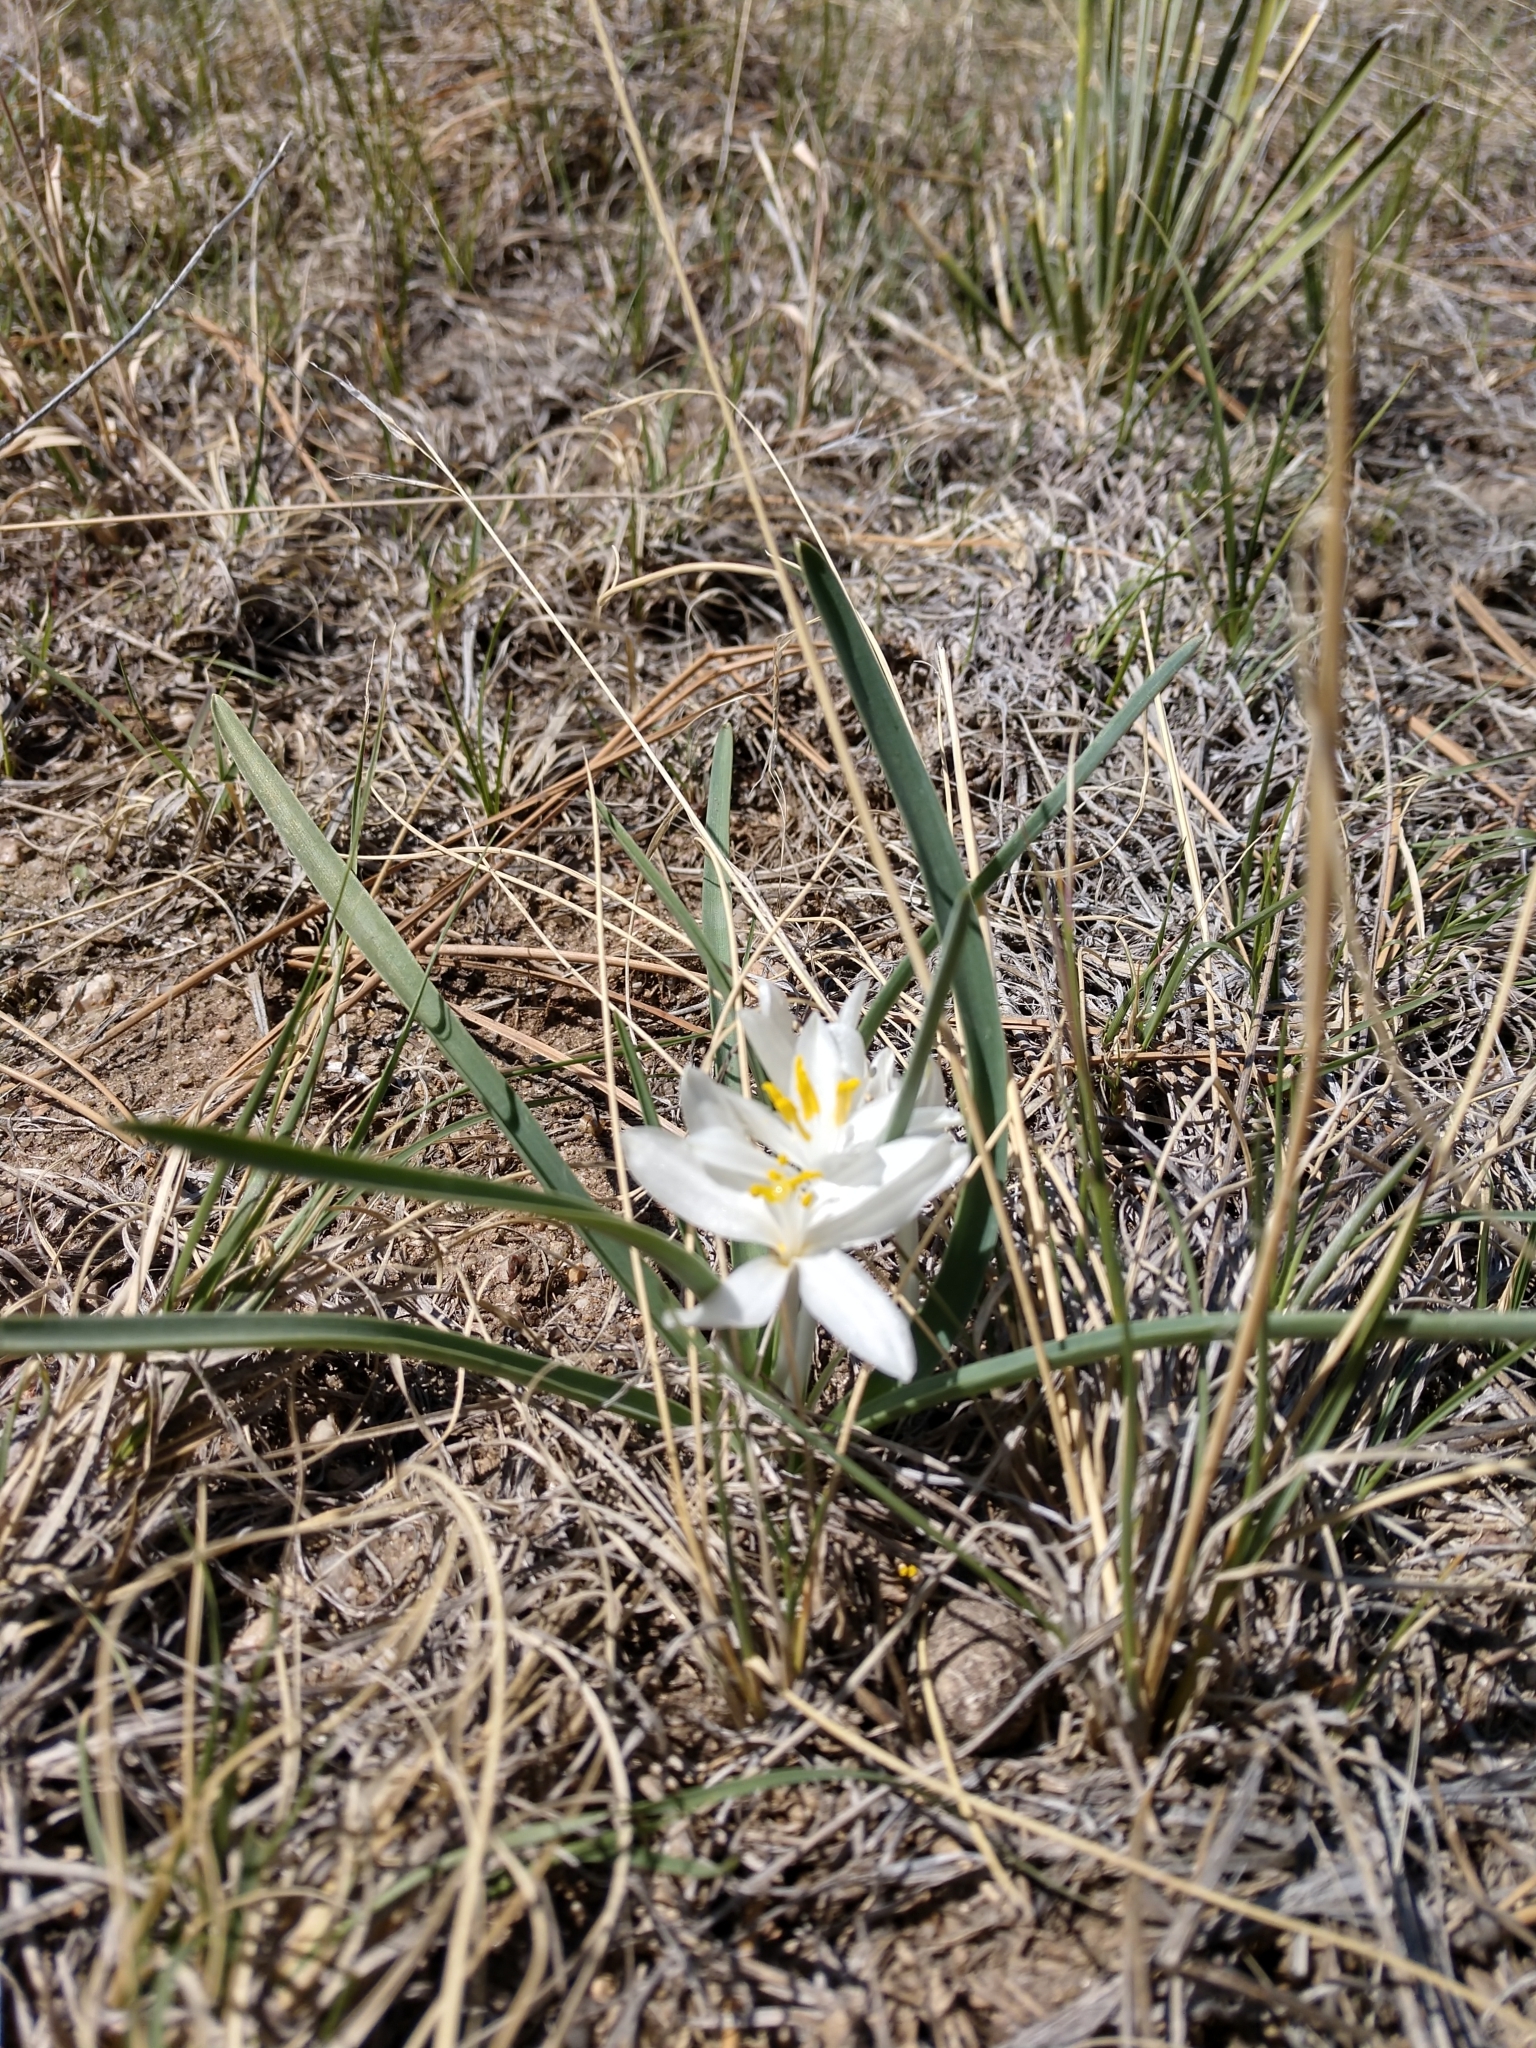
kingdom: Plantae
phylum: Tracheophyta
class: Liliopsida
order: Asparagales
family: Asparagaceae
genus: Leucocrinum
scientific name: Leucocrinum montanum
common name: Mountain-lily
